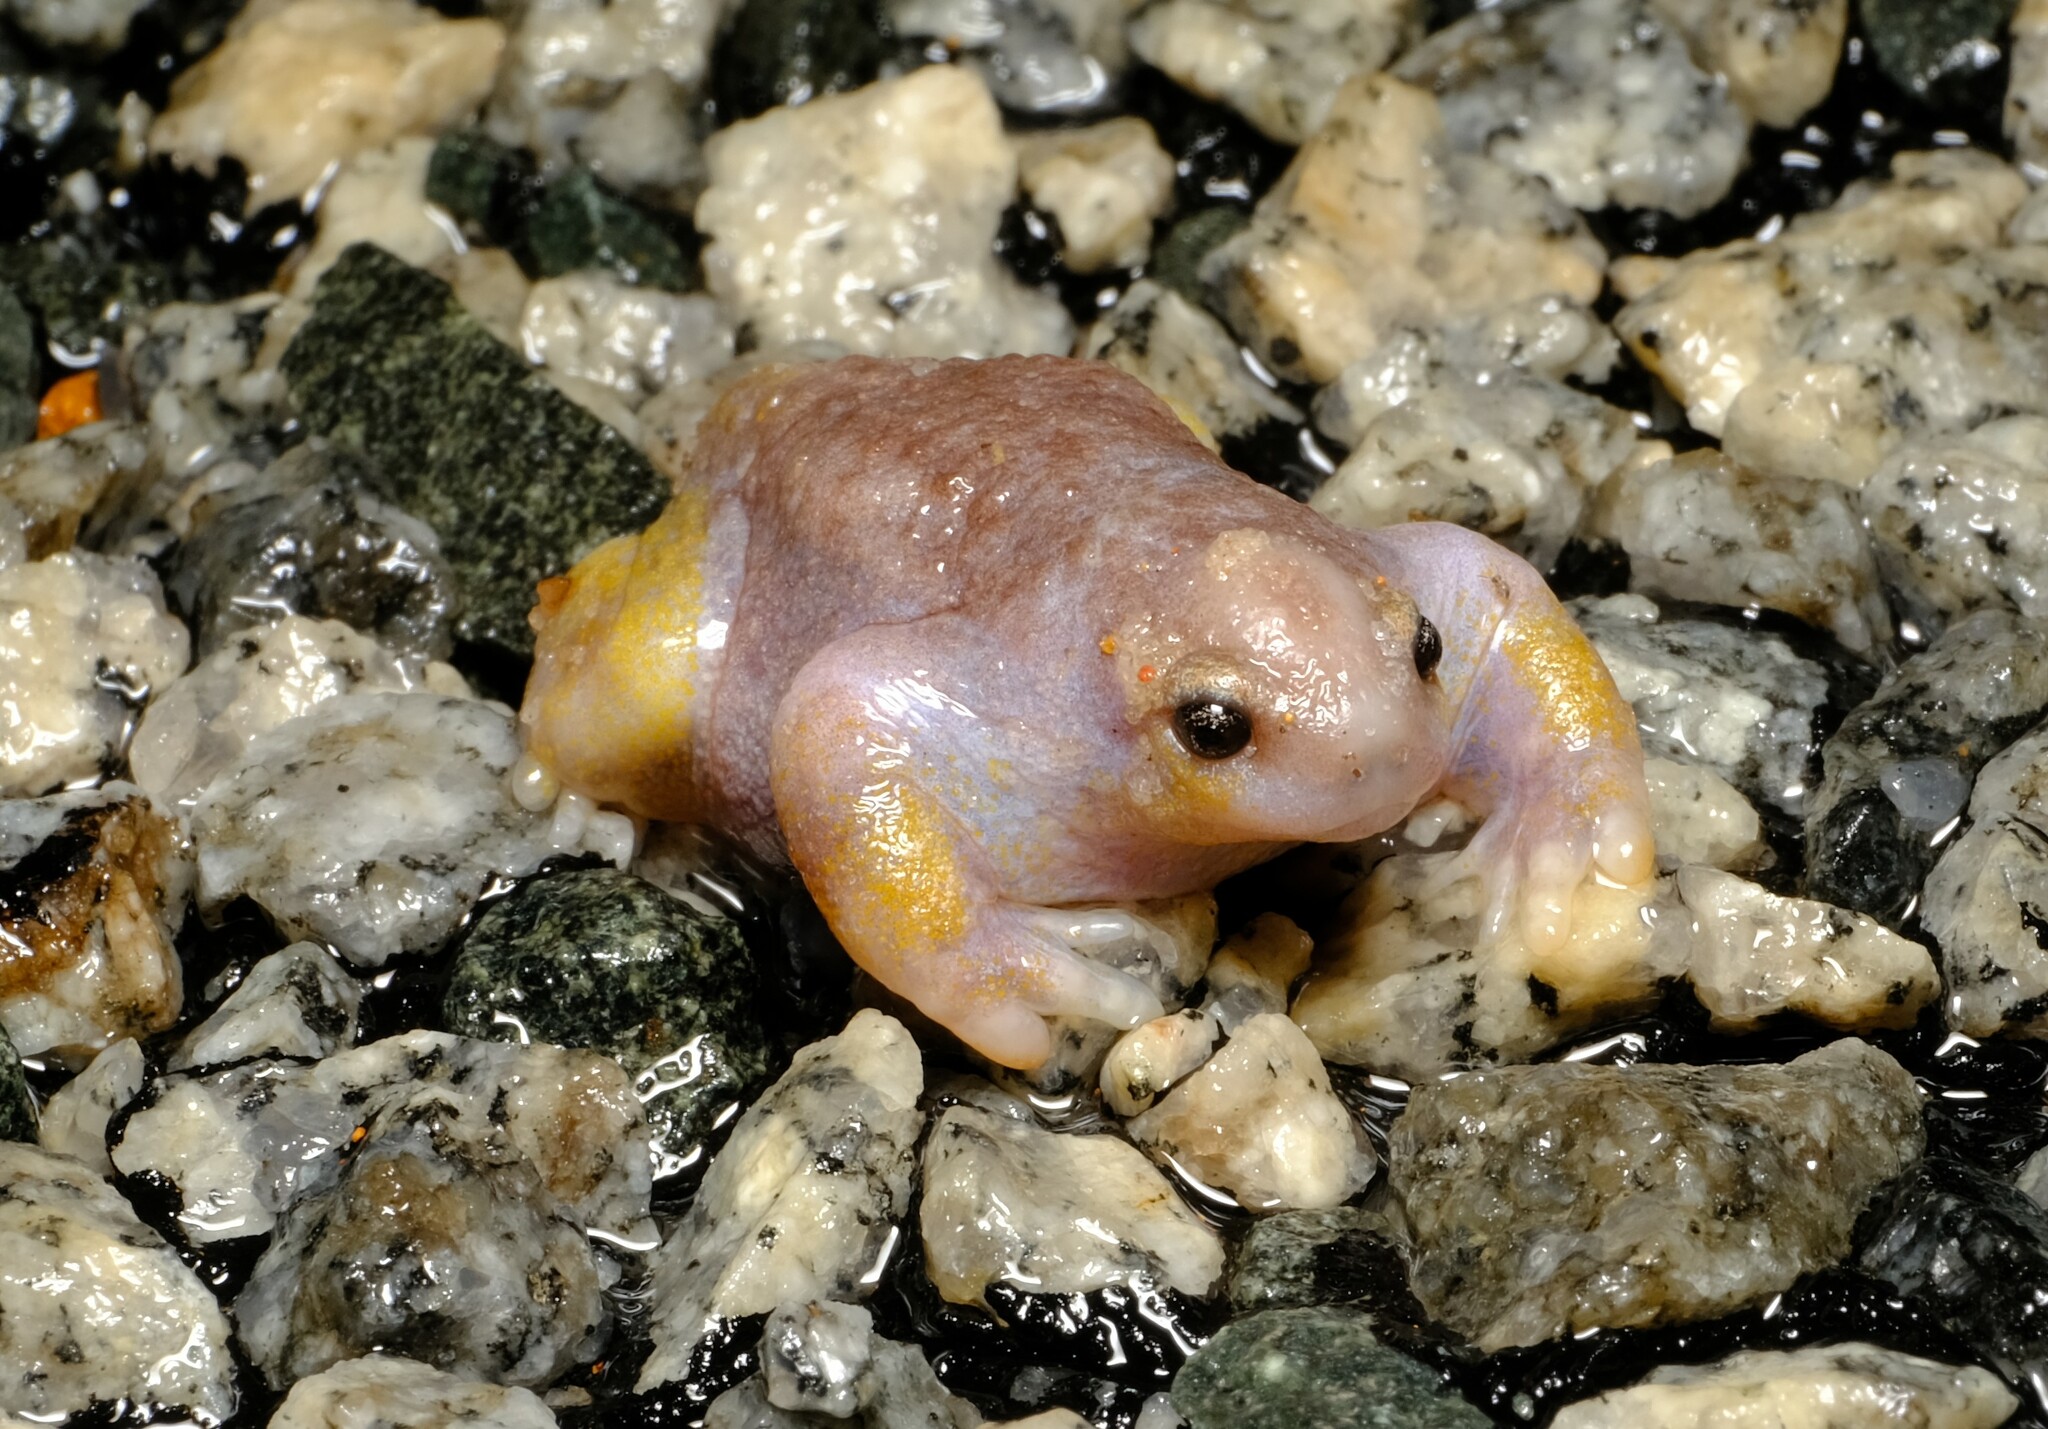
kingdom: Animalia
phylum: Chordata
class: Amphibia
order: Anura
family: Myobatrachidae
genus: Myobatrachus
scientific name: Myobatrachus gouldii
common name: Turtle frog
